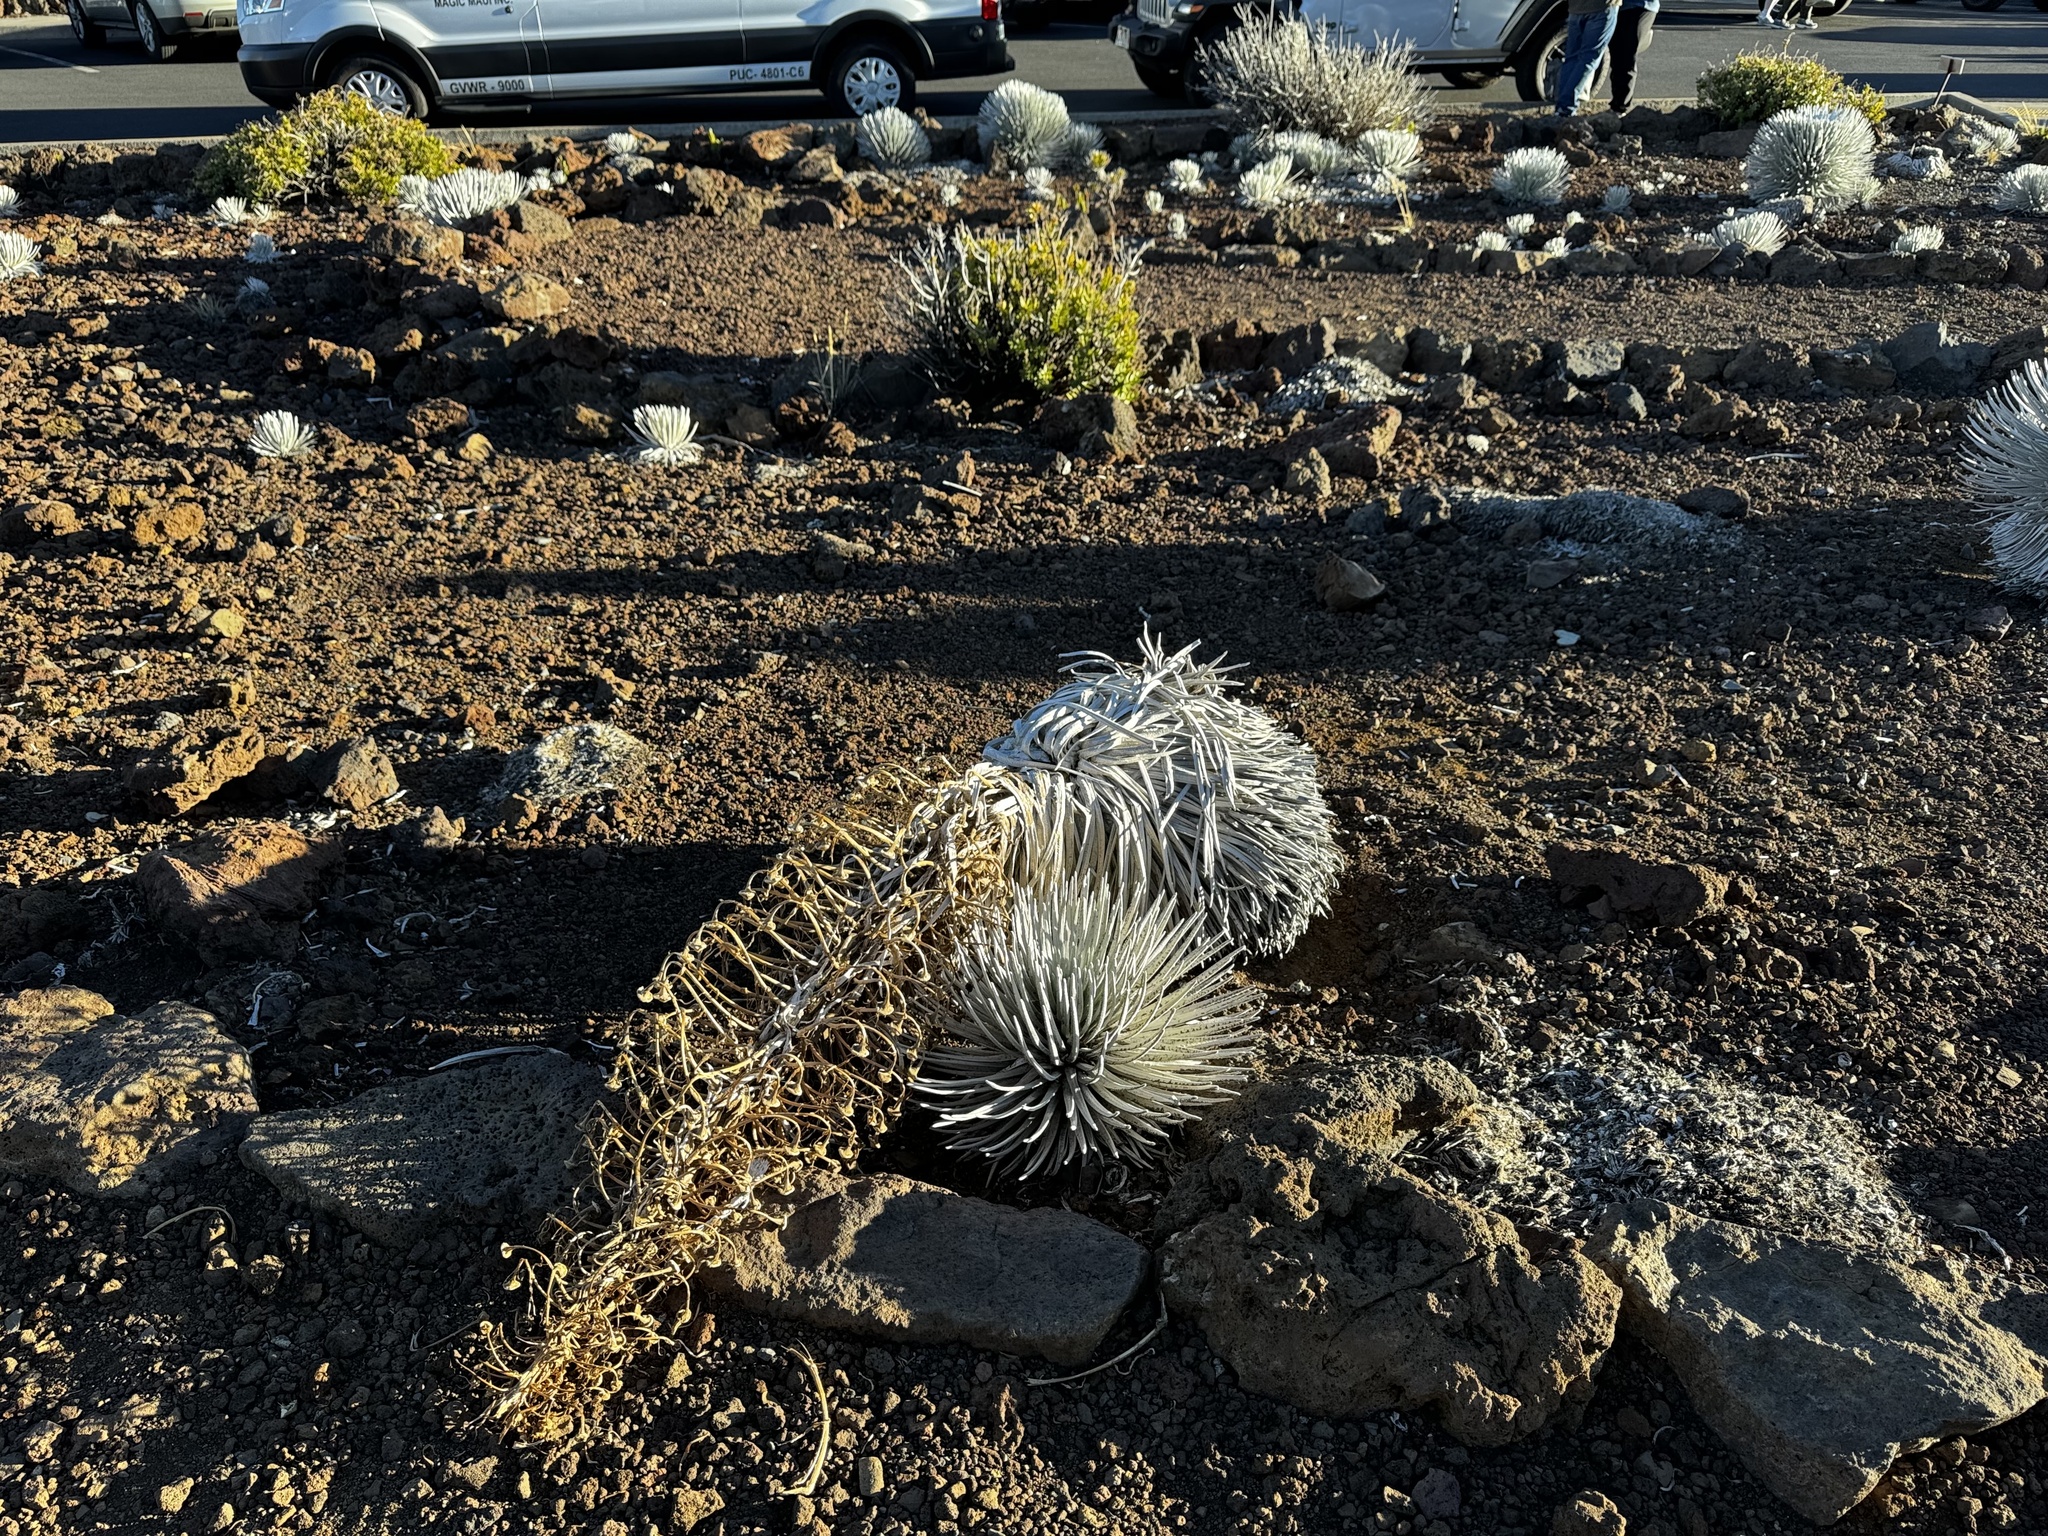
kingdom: Plantae
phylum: Tracheophyta
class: Magnoliopsida
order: Asterales
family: Asteraceae
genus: Argyroxiphium
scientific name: Argyroxiphium sandwicense
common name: Silversword
